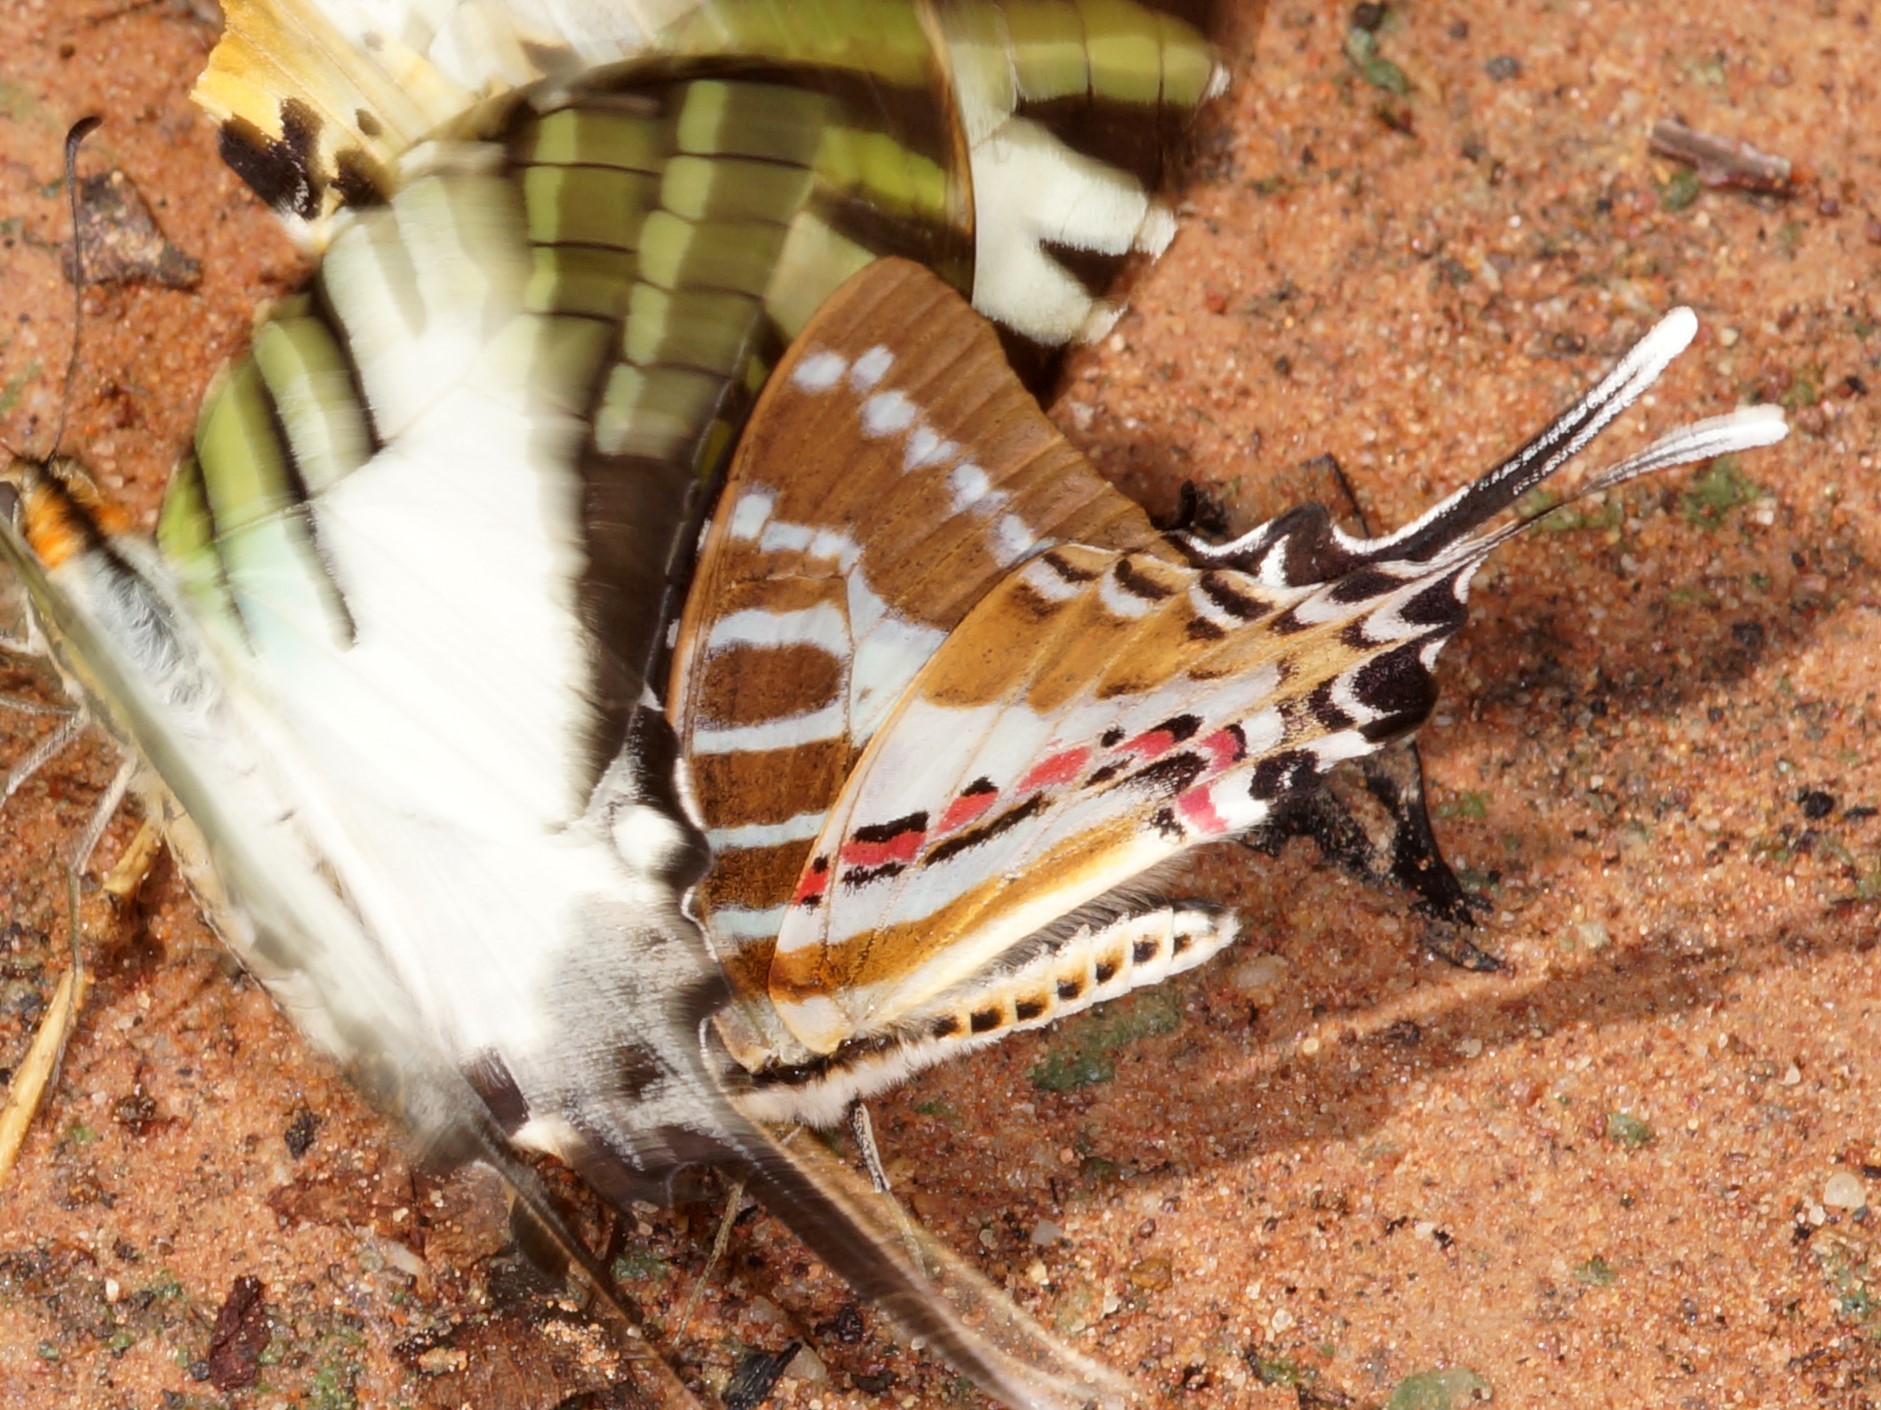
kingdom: Animalia
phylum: Arthropoda
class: Insecta
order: Lepidoptera
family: Papilionidae
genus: Graphium
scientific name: Graphium nomius
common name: Spot swordtail
